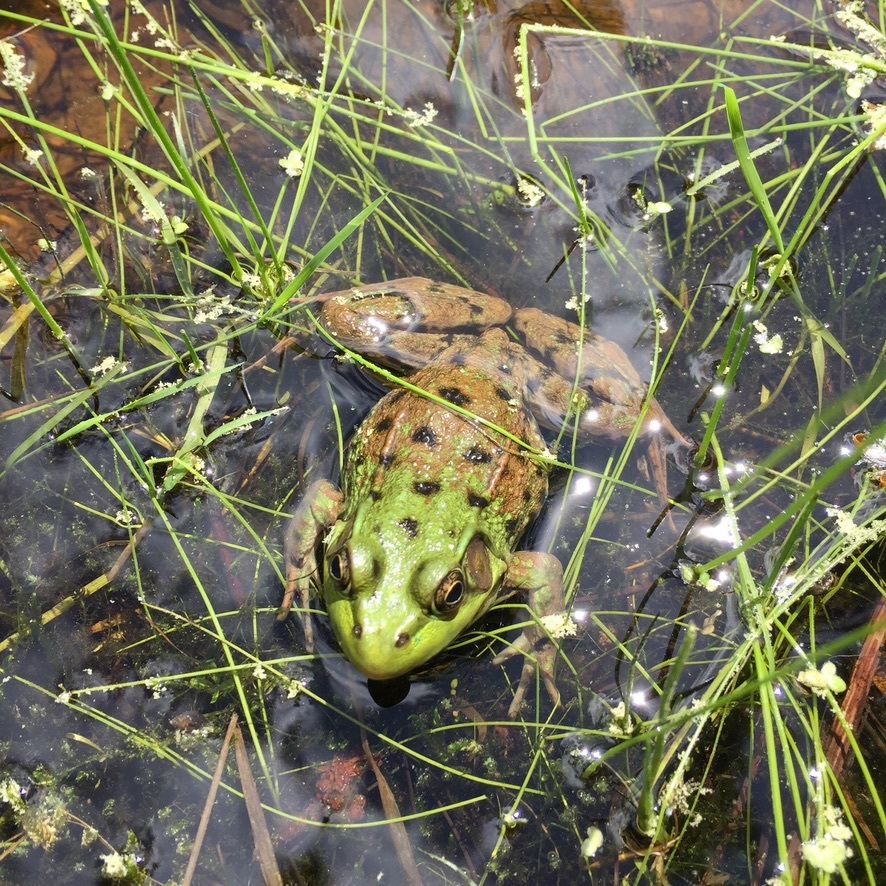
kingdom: Animalia
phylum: Chordata
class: Amphibia
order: Anura
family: Ranidae
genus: Lithobates
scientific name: Lithobates clamitans
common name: Green frog
